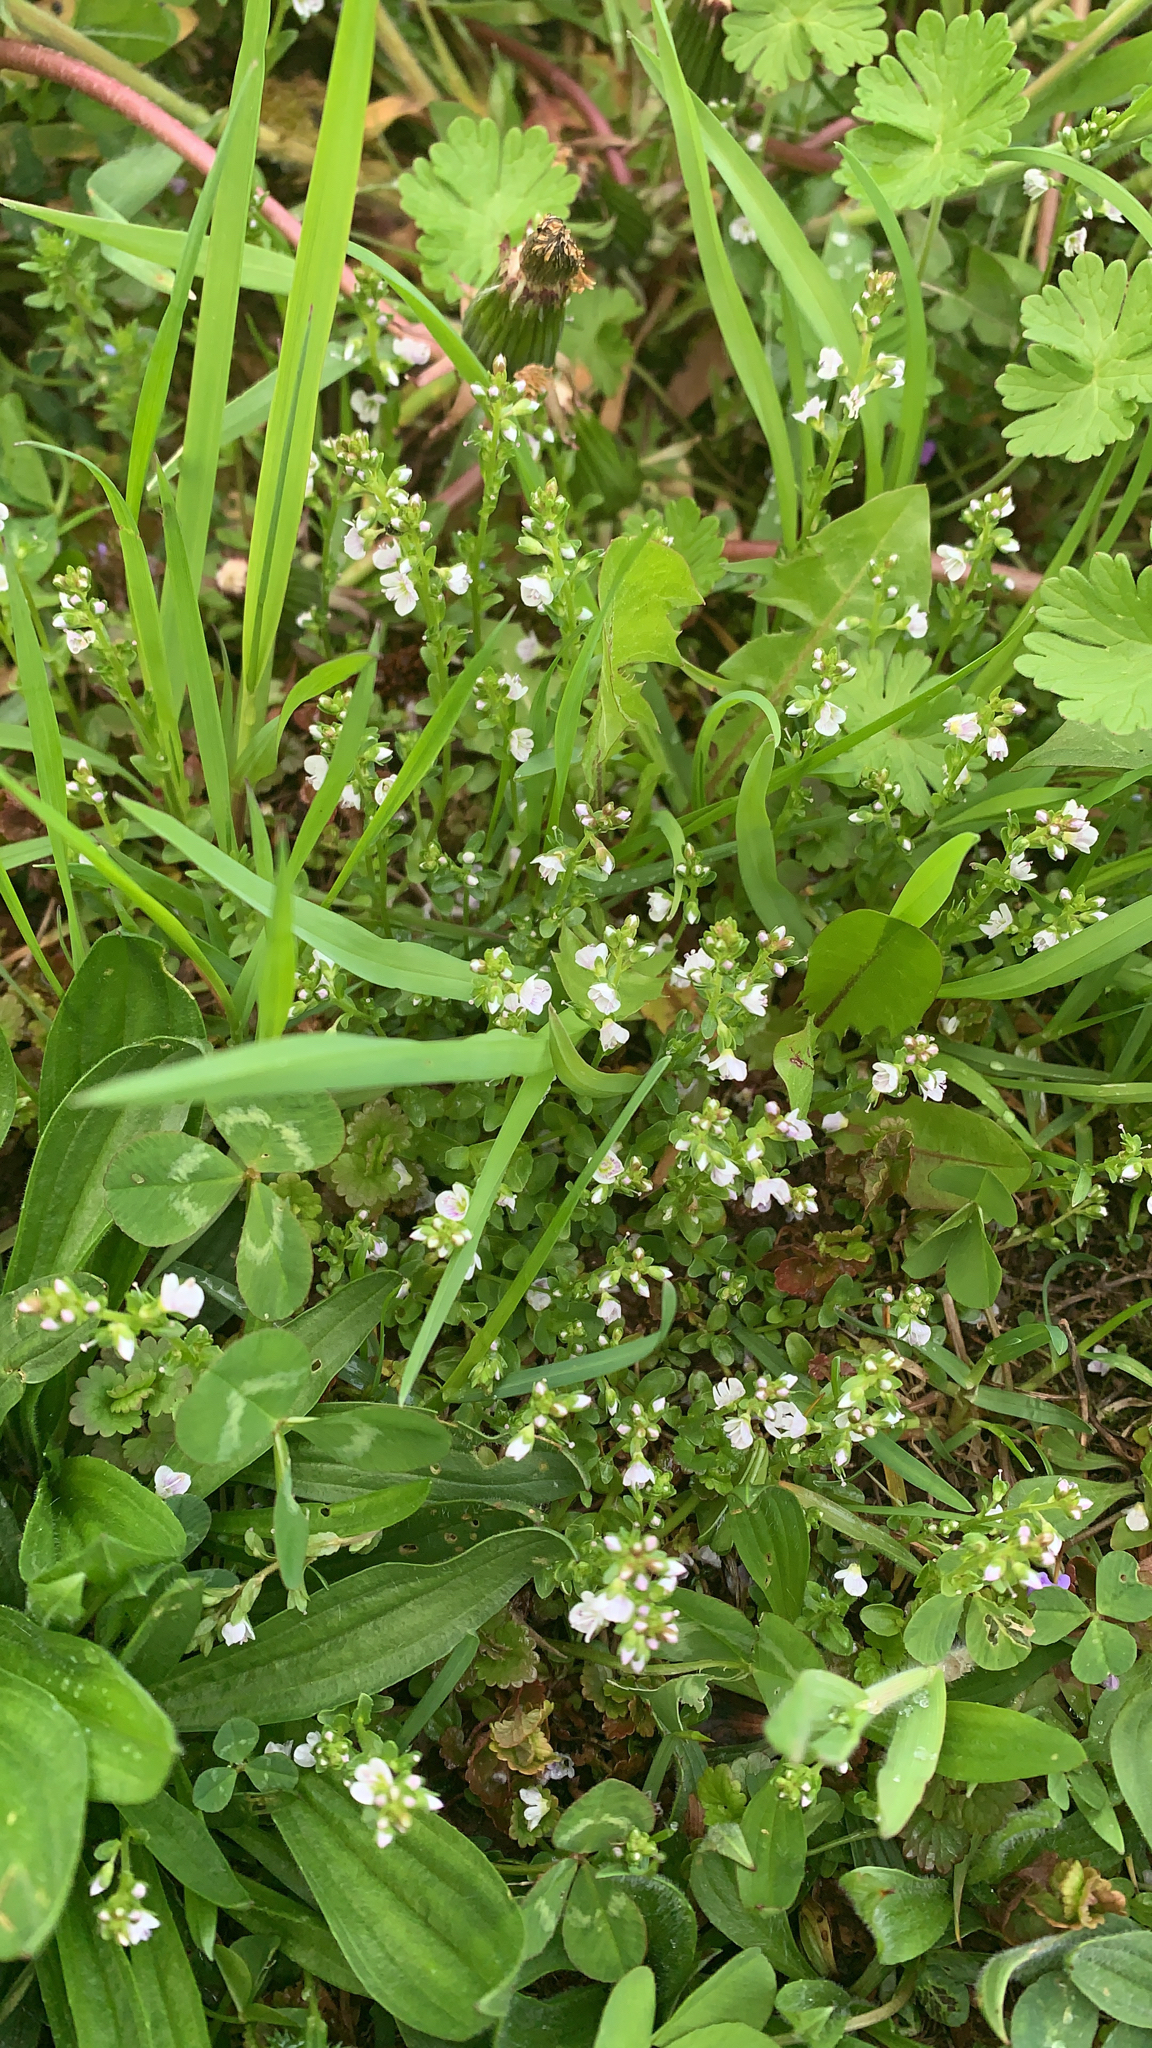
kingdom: Plantae
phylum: Tracheophyta
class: Magnoliopsida
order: Lamiales
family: Plantaginaceae
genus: Veronica
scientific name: Veronica serpyllifolia
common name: Thyme-leaved speedwell
